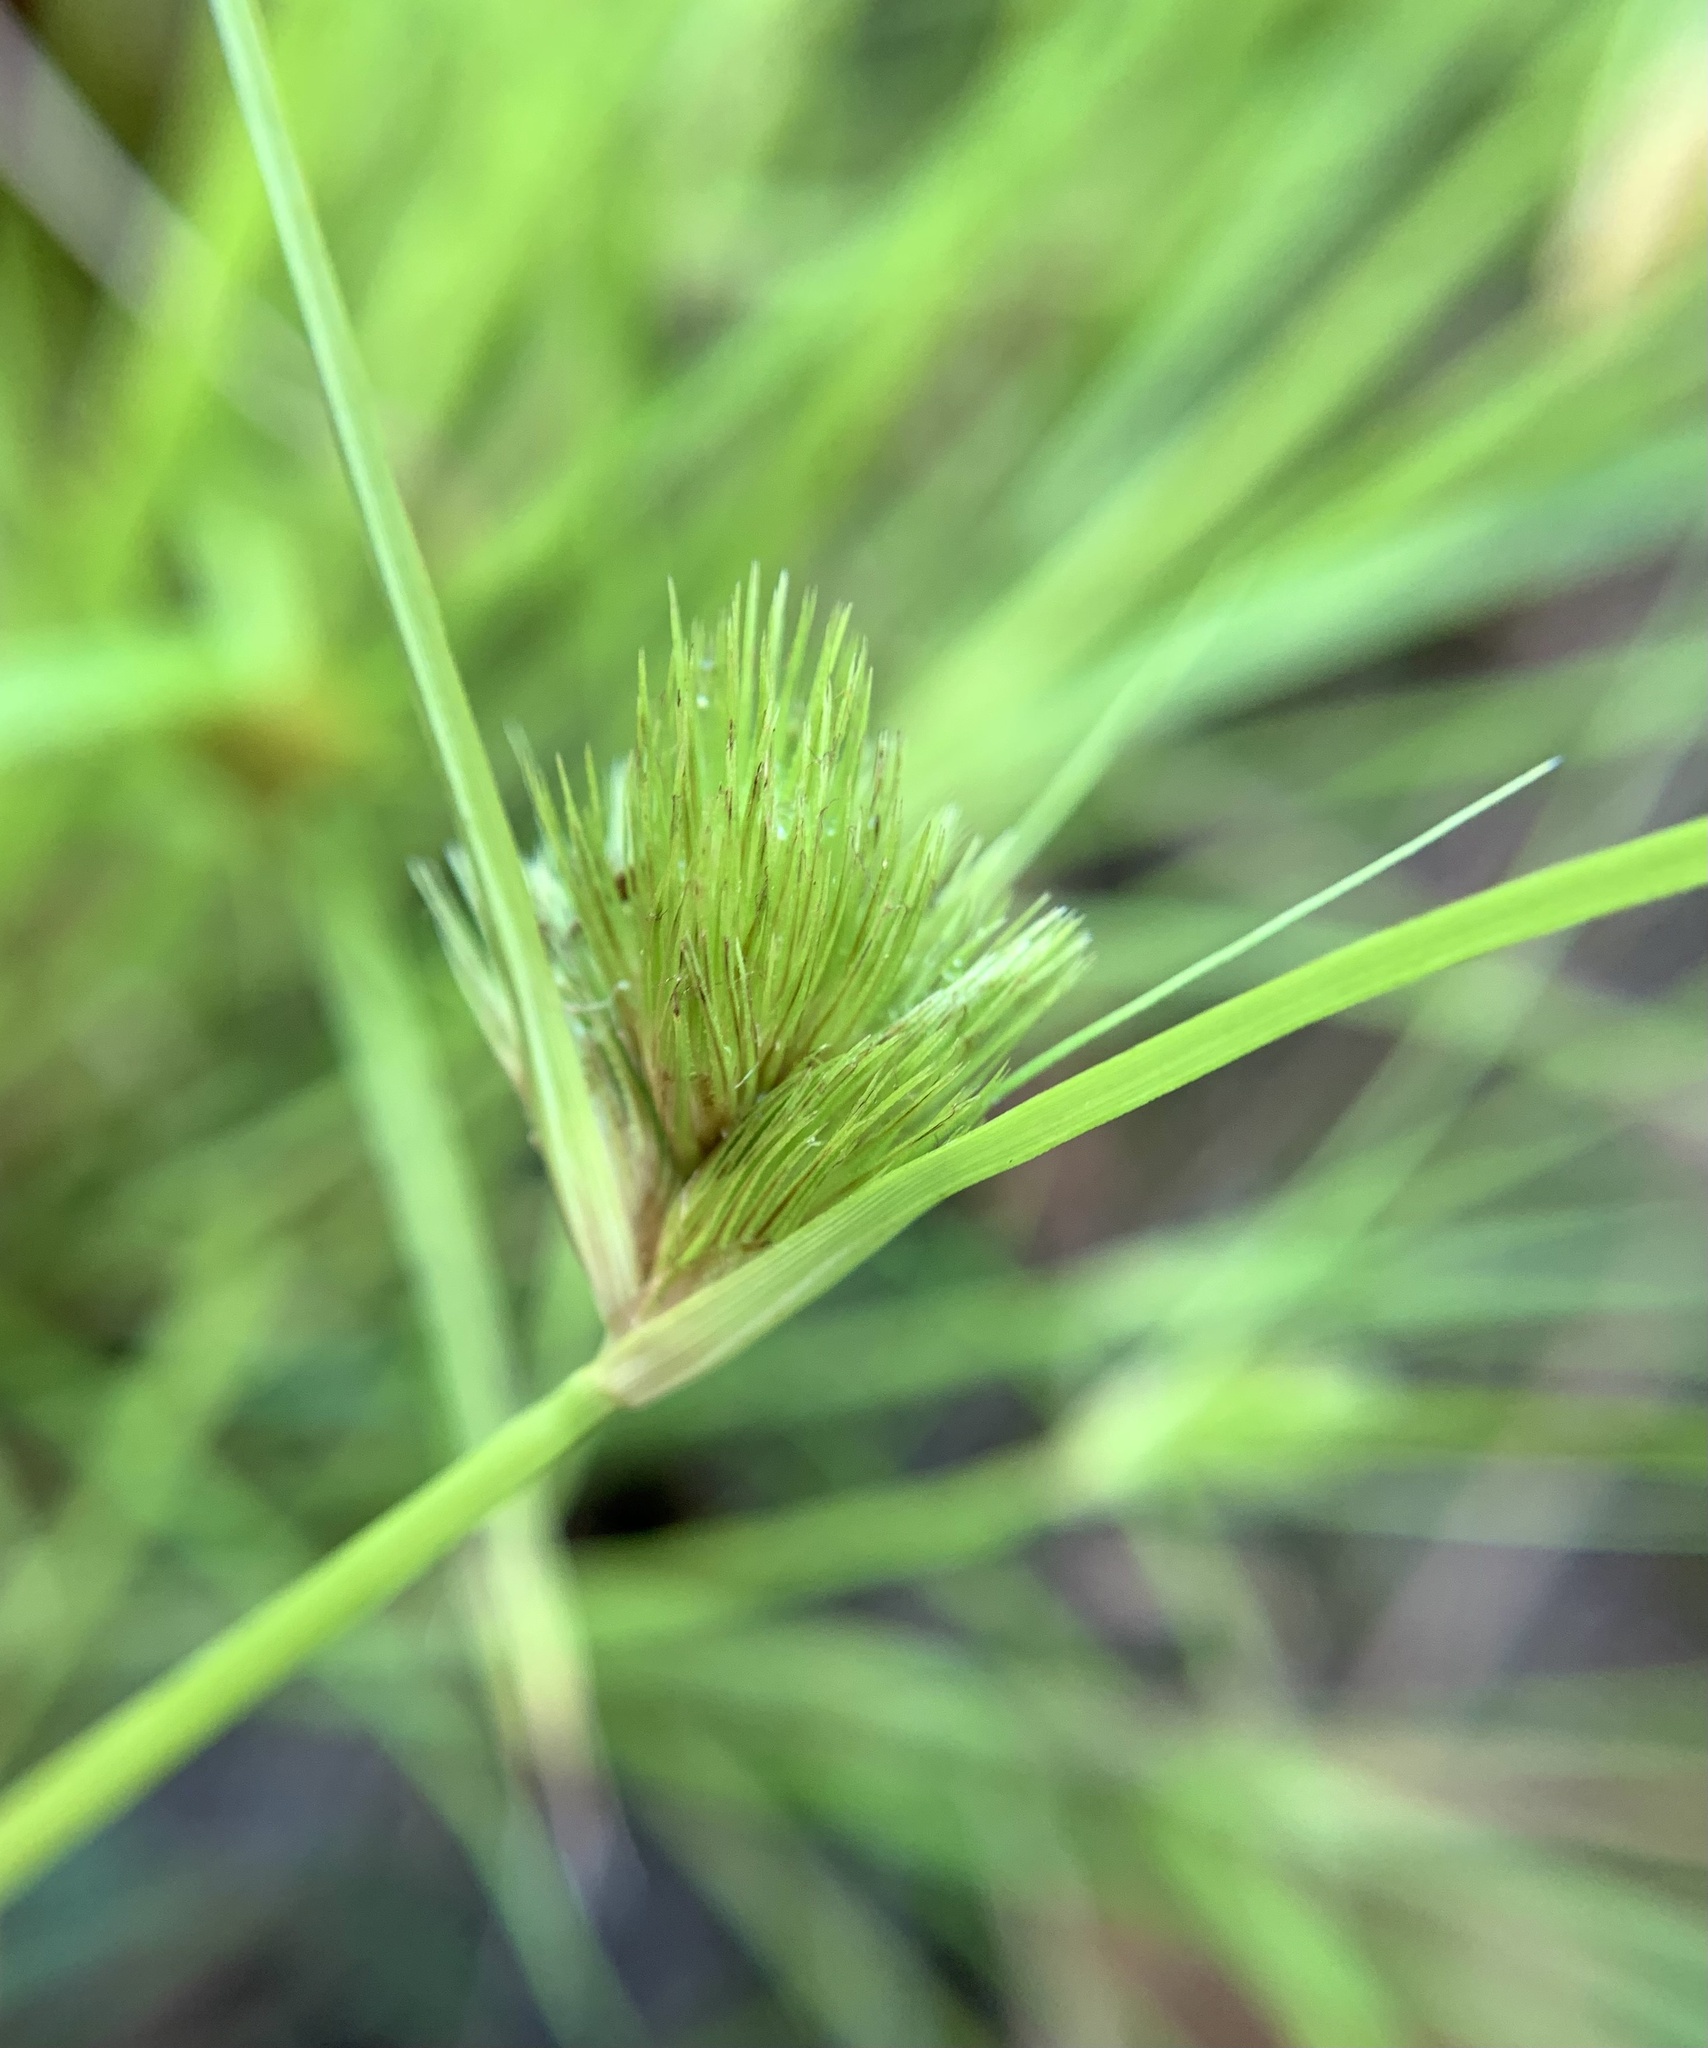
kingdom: Plantae
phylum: Tracheophyta
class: Liliopsida
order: Poales
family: Cyperaceae
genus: Carex
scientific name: Carex bohemica
